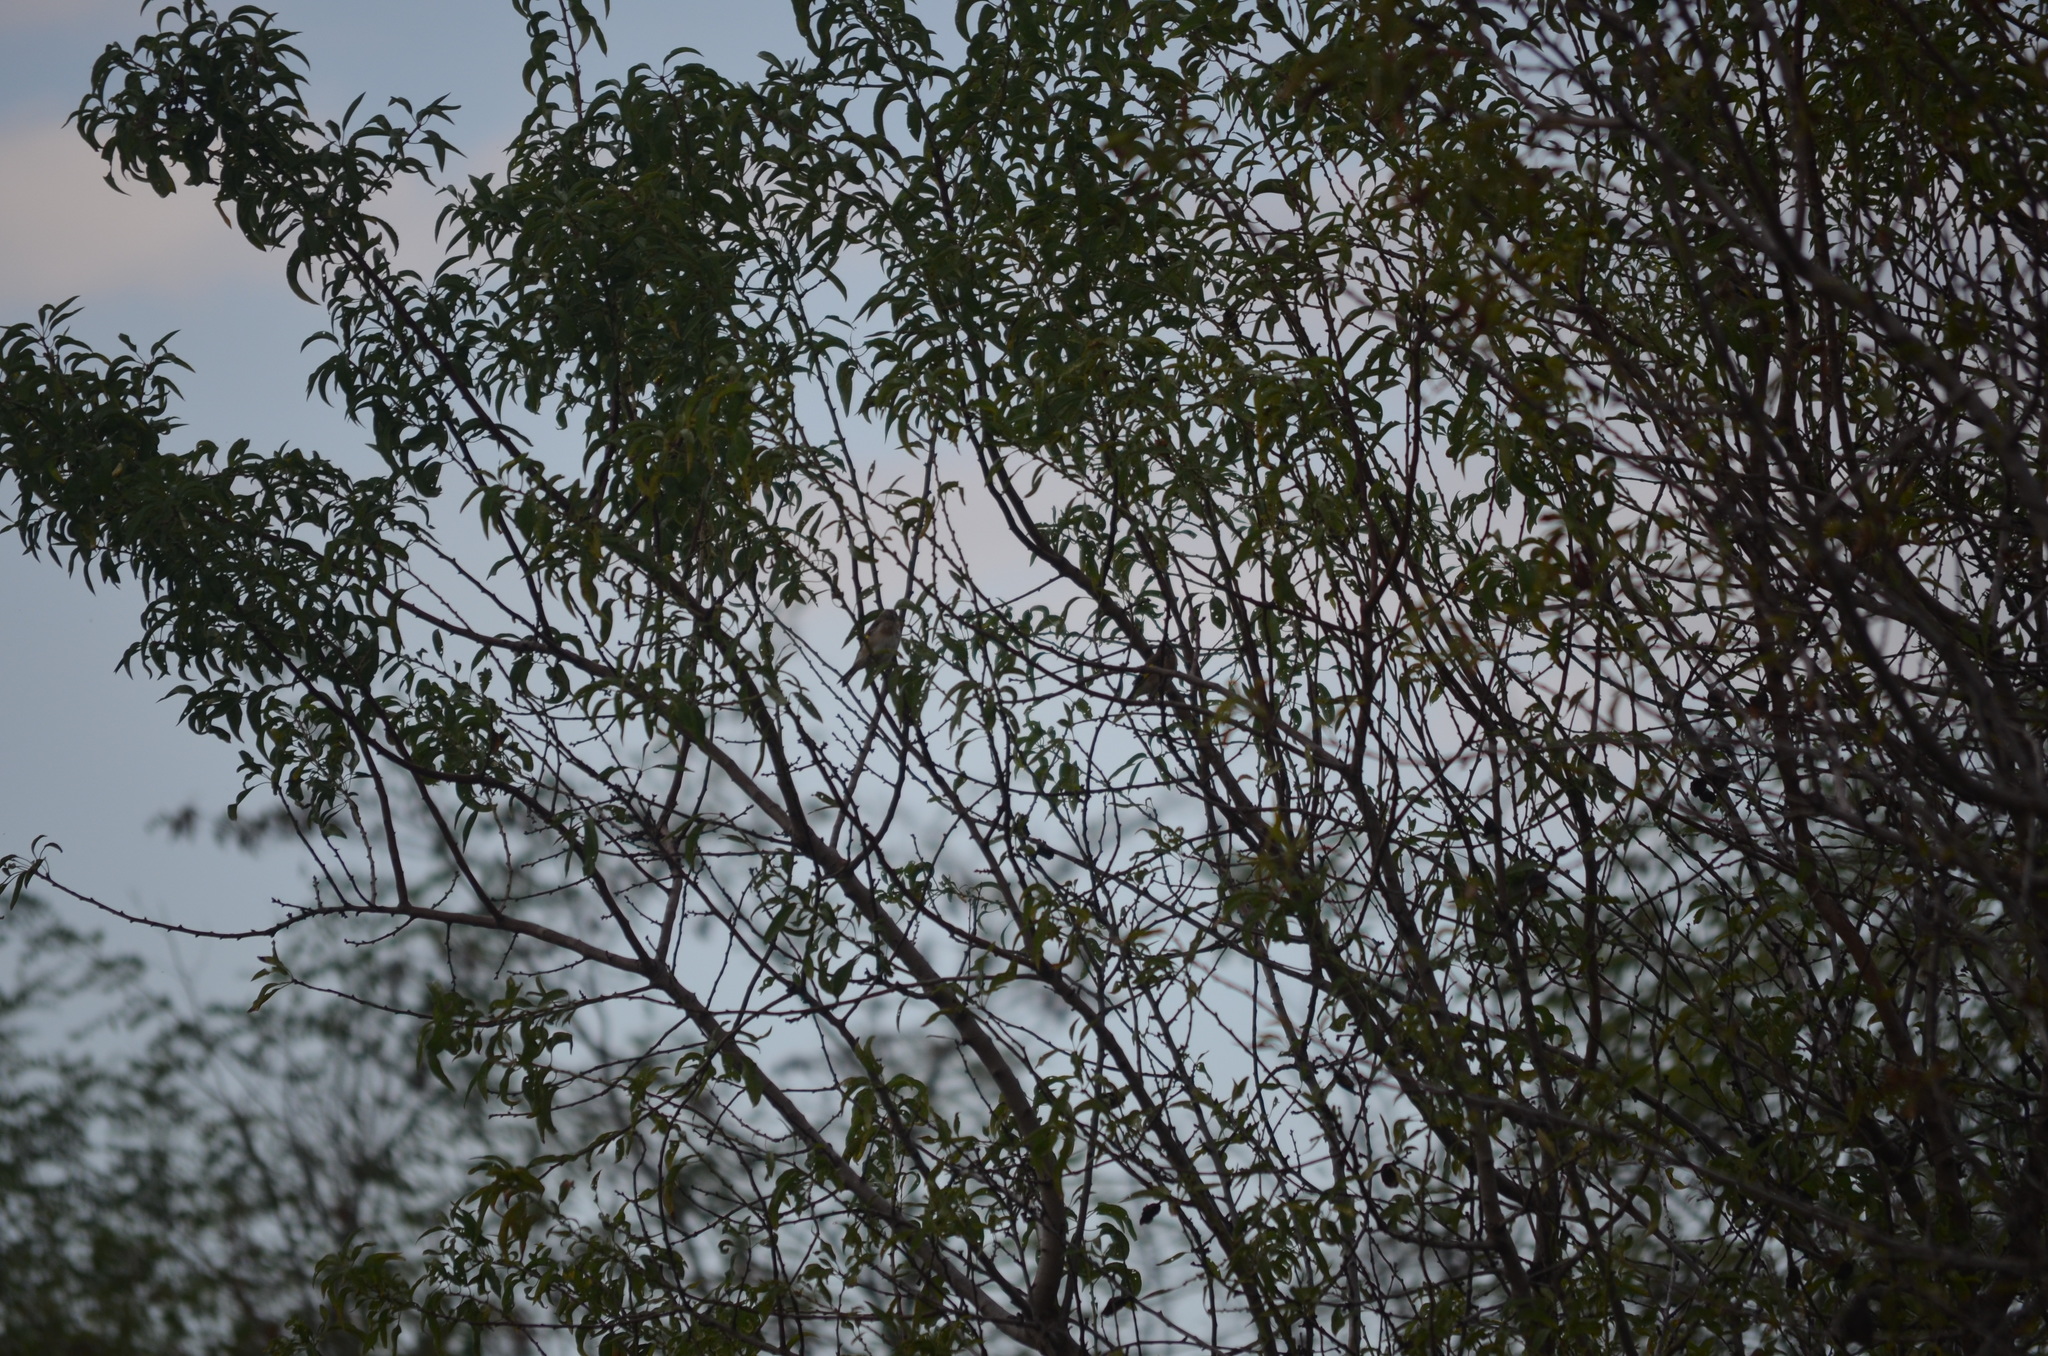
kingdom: Animalia
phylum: Chordata
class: Aves
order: Passeriformes
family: Fringillidae
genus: Carduelis
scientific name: Carduelis carduelis
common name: European goldfinch
